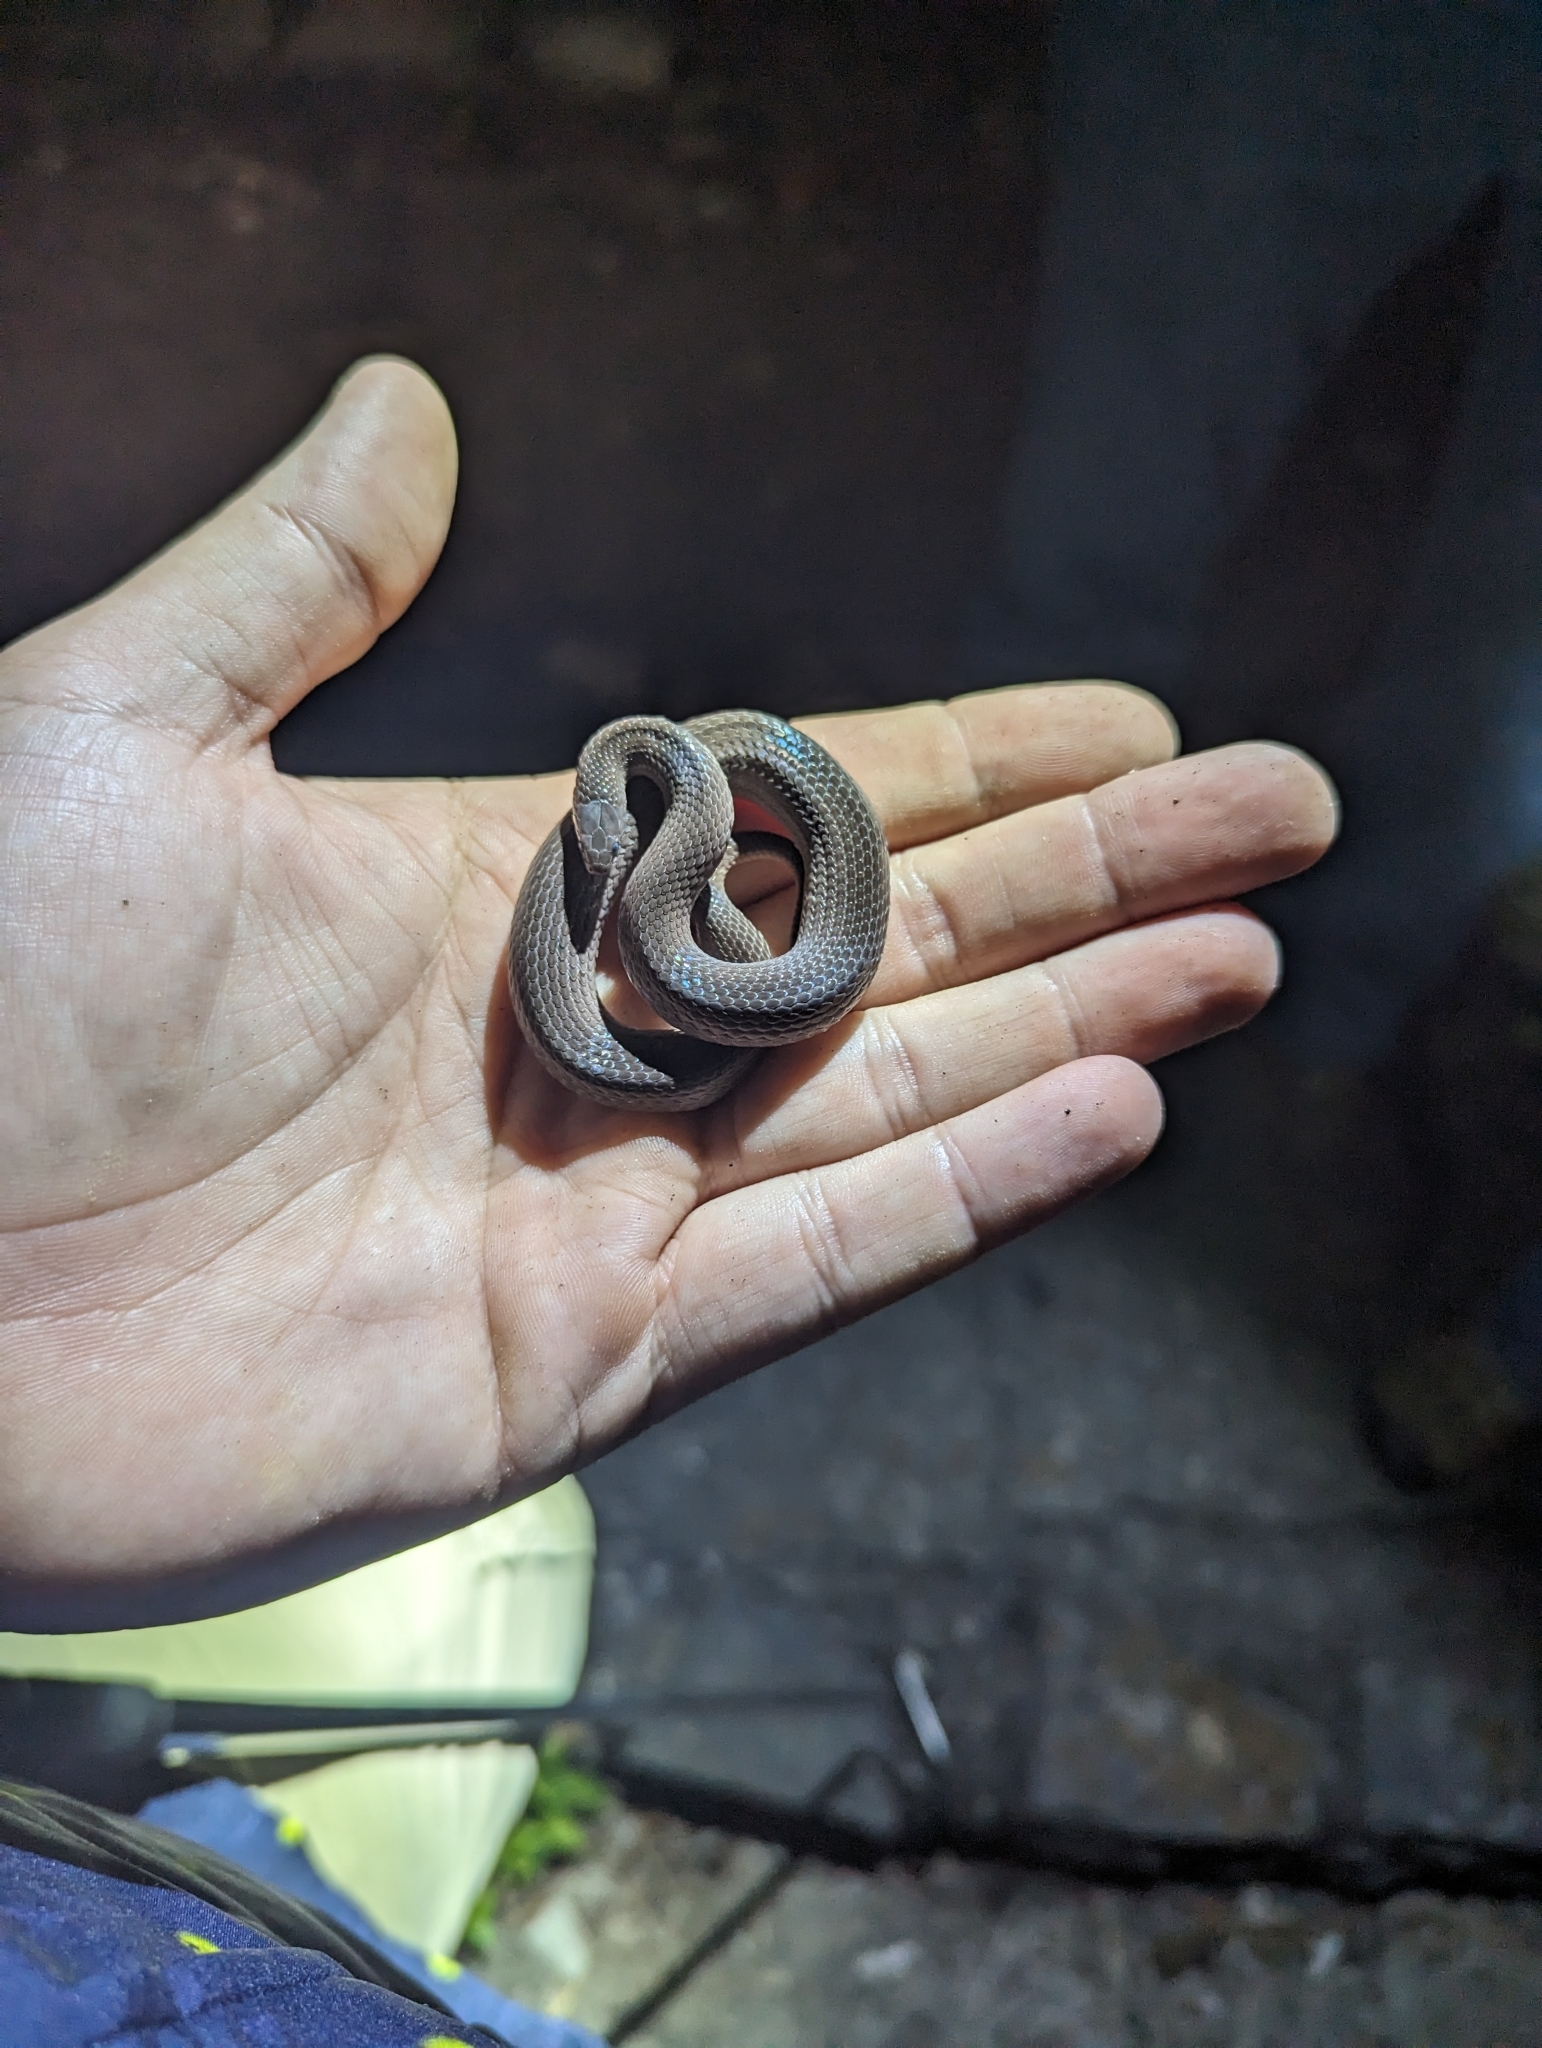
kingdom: Animalia
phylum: Chordata
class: Squamata
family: Colubridae
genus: Virginia
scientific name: Virginia valeriae
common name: Smooth earth snake
